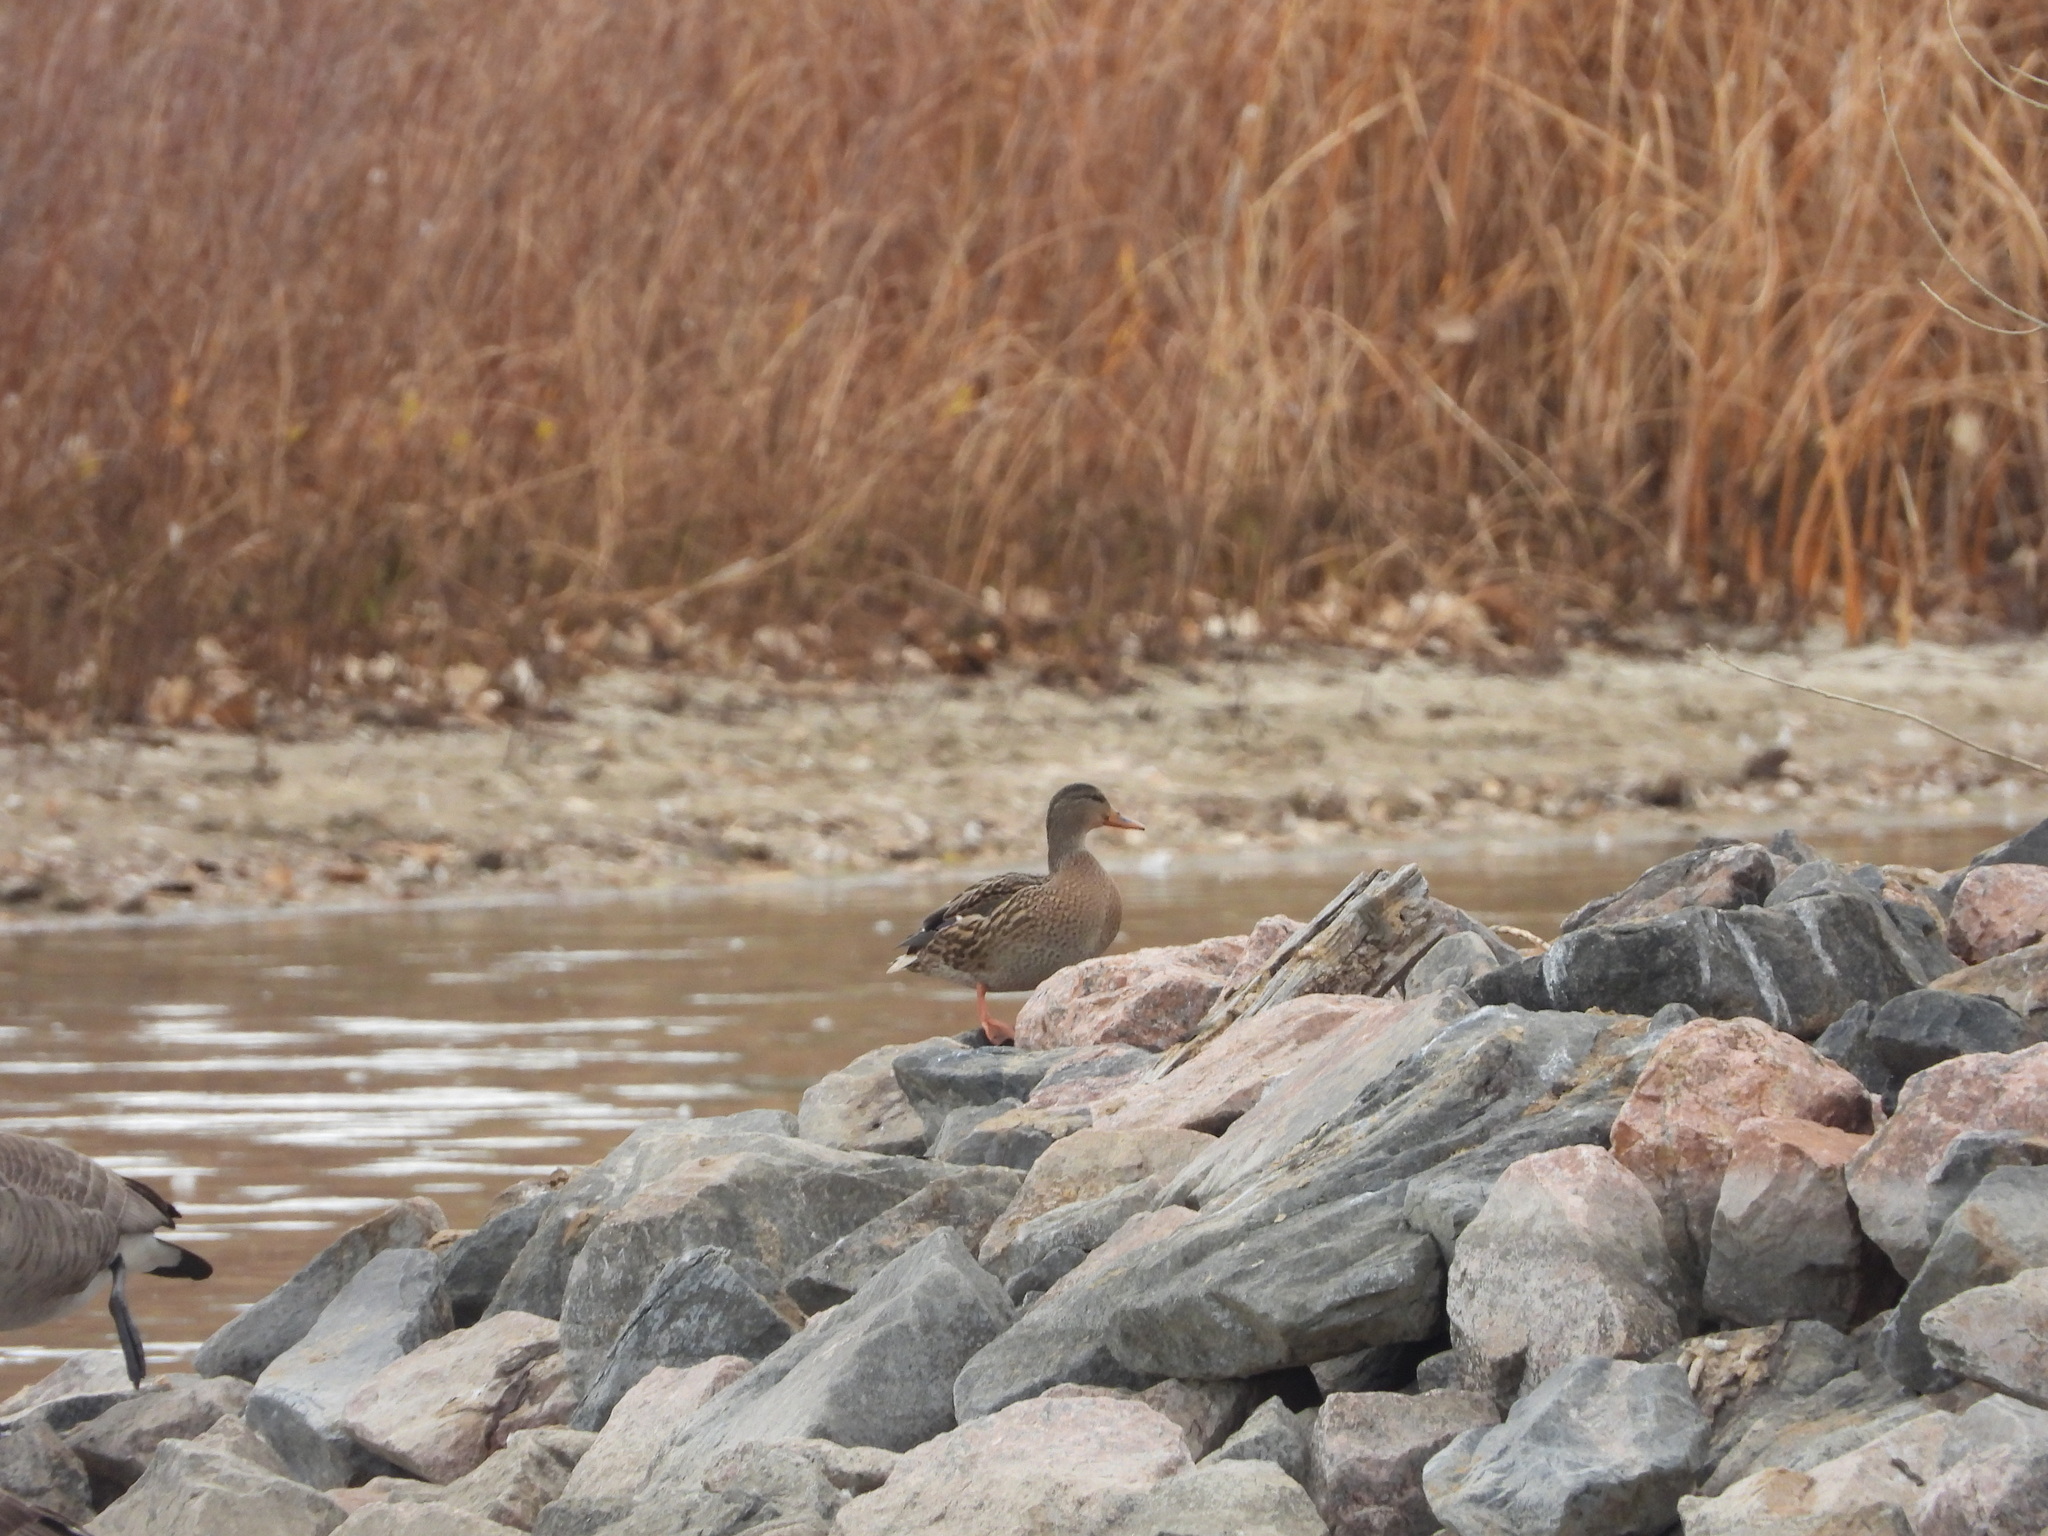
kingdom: Animalia
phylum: Chordata
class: Aves
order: Anseriformes
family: Anatidae
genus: Anas
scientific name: Anas platyrhynchos
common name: Mallard
